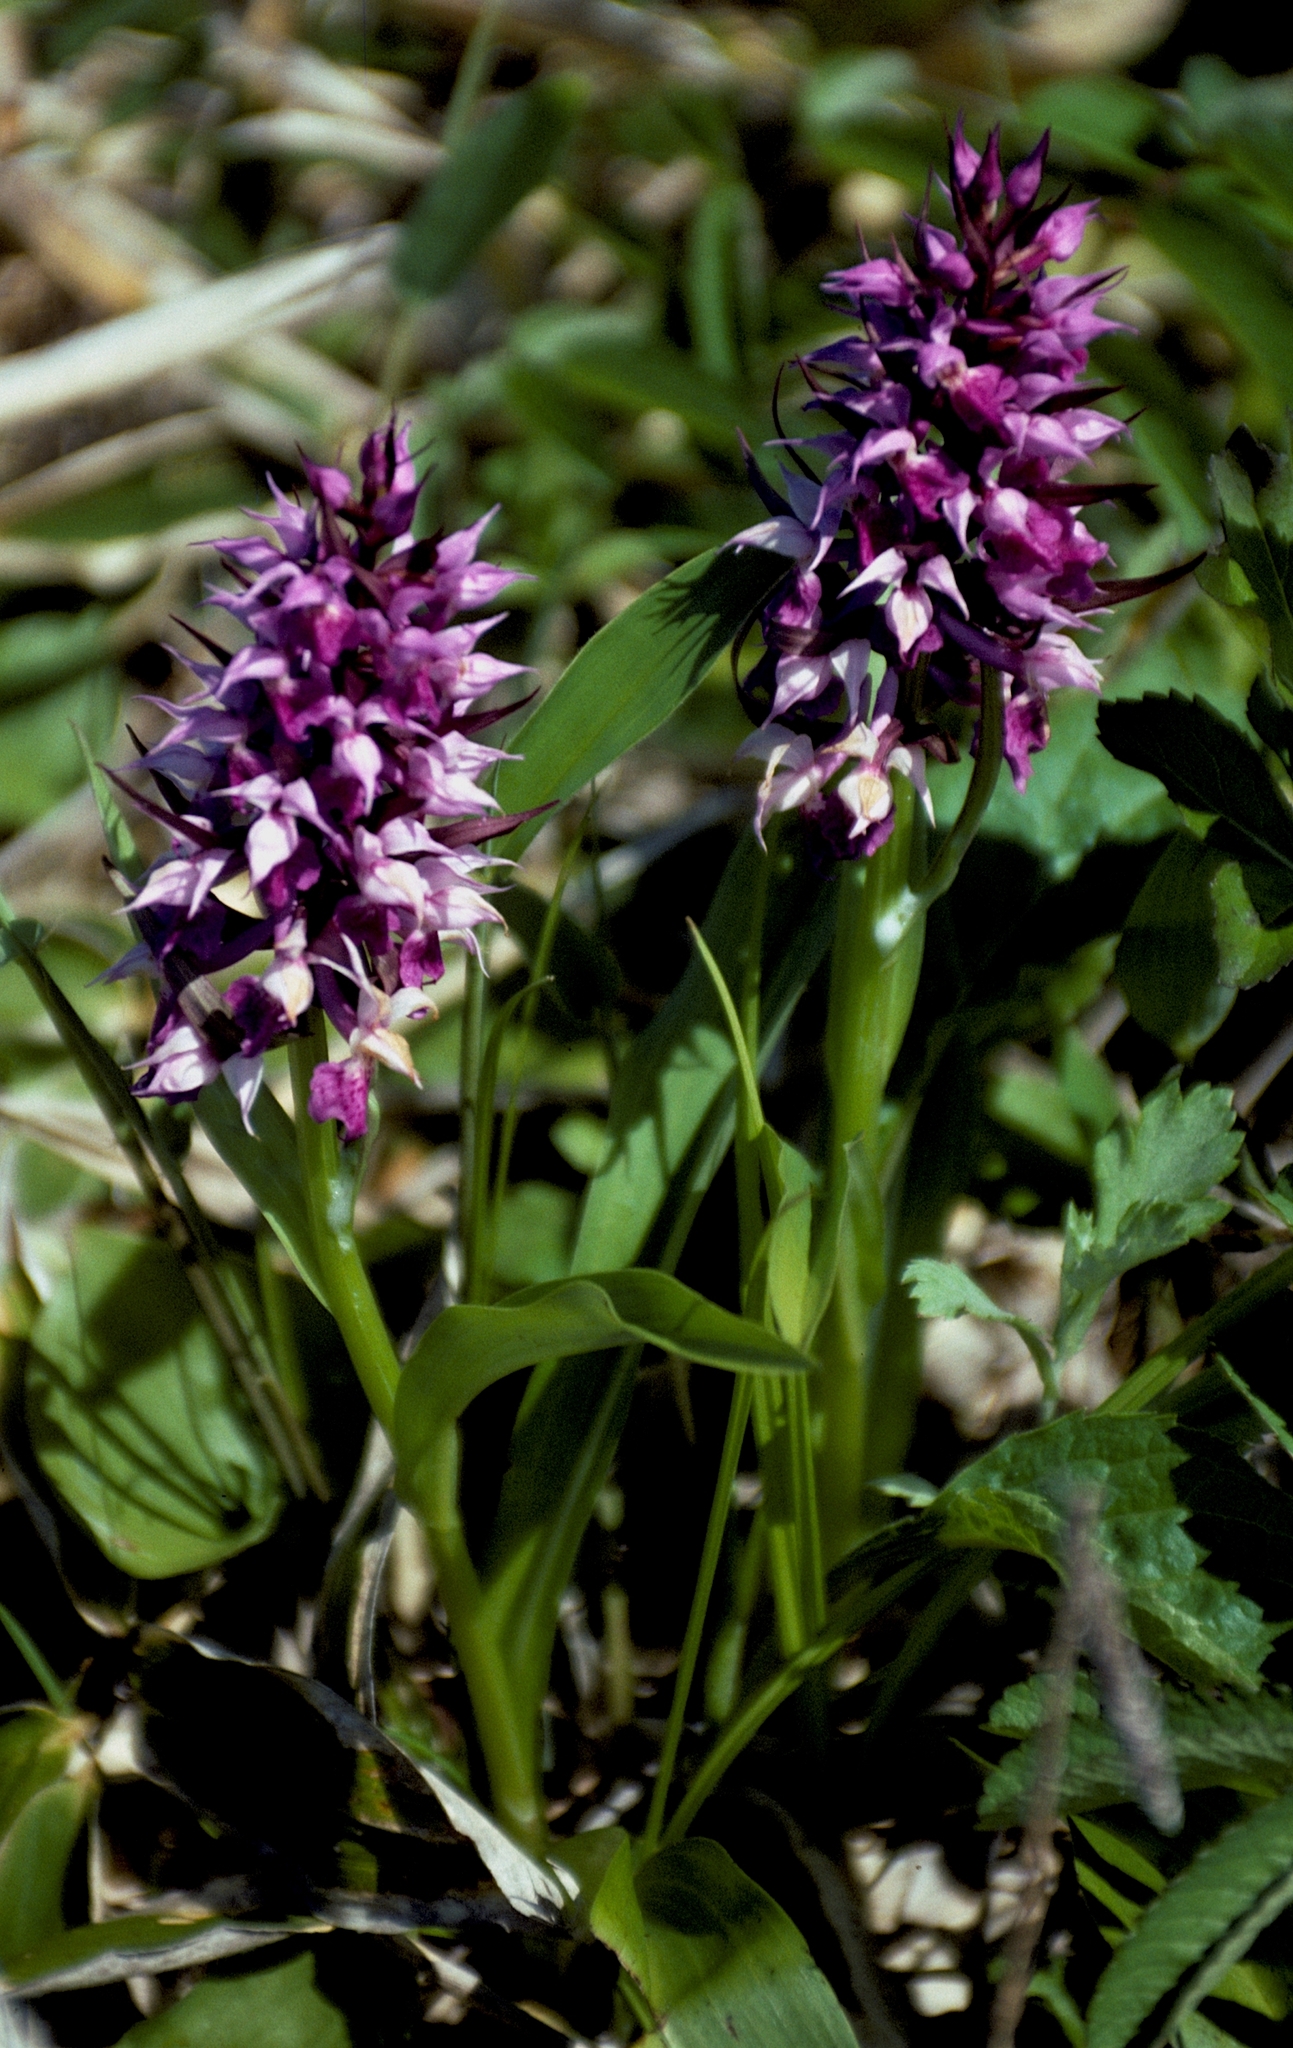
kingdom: Plantae
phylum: Tracheophyta
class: Liliopsida
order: Asparagales
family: Orchidaceae
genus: Dactylorhiza
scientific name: Dactylorhiza aristata
